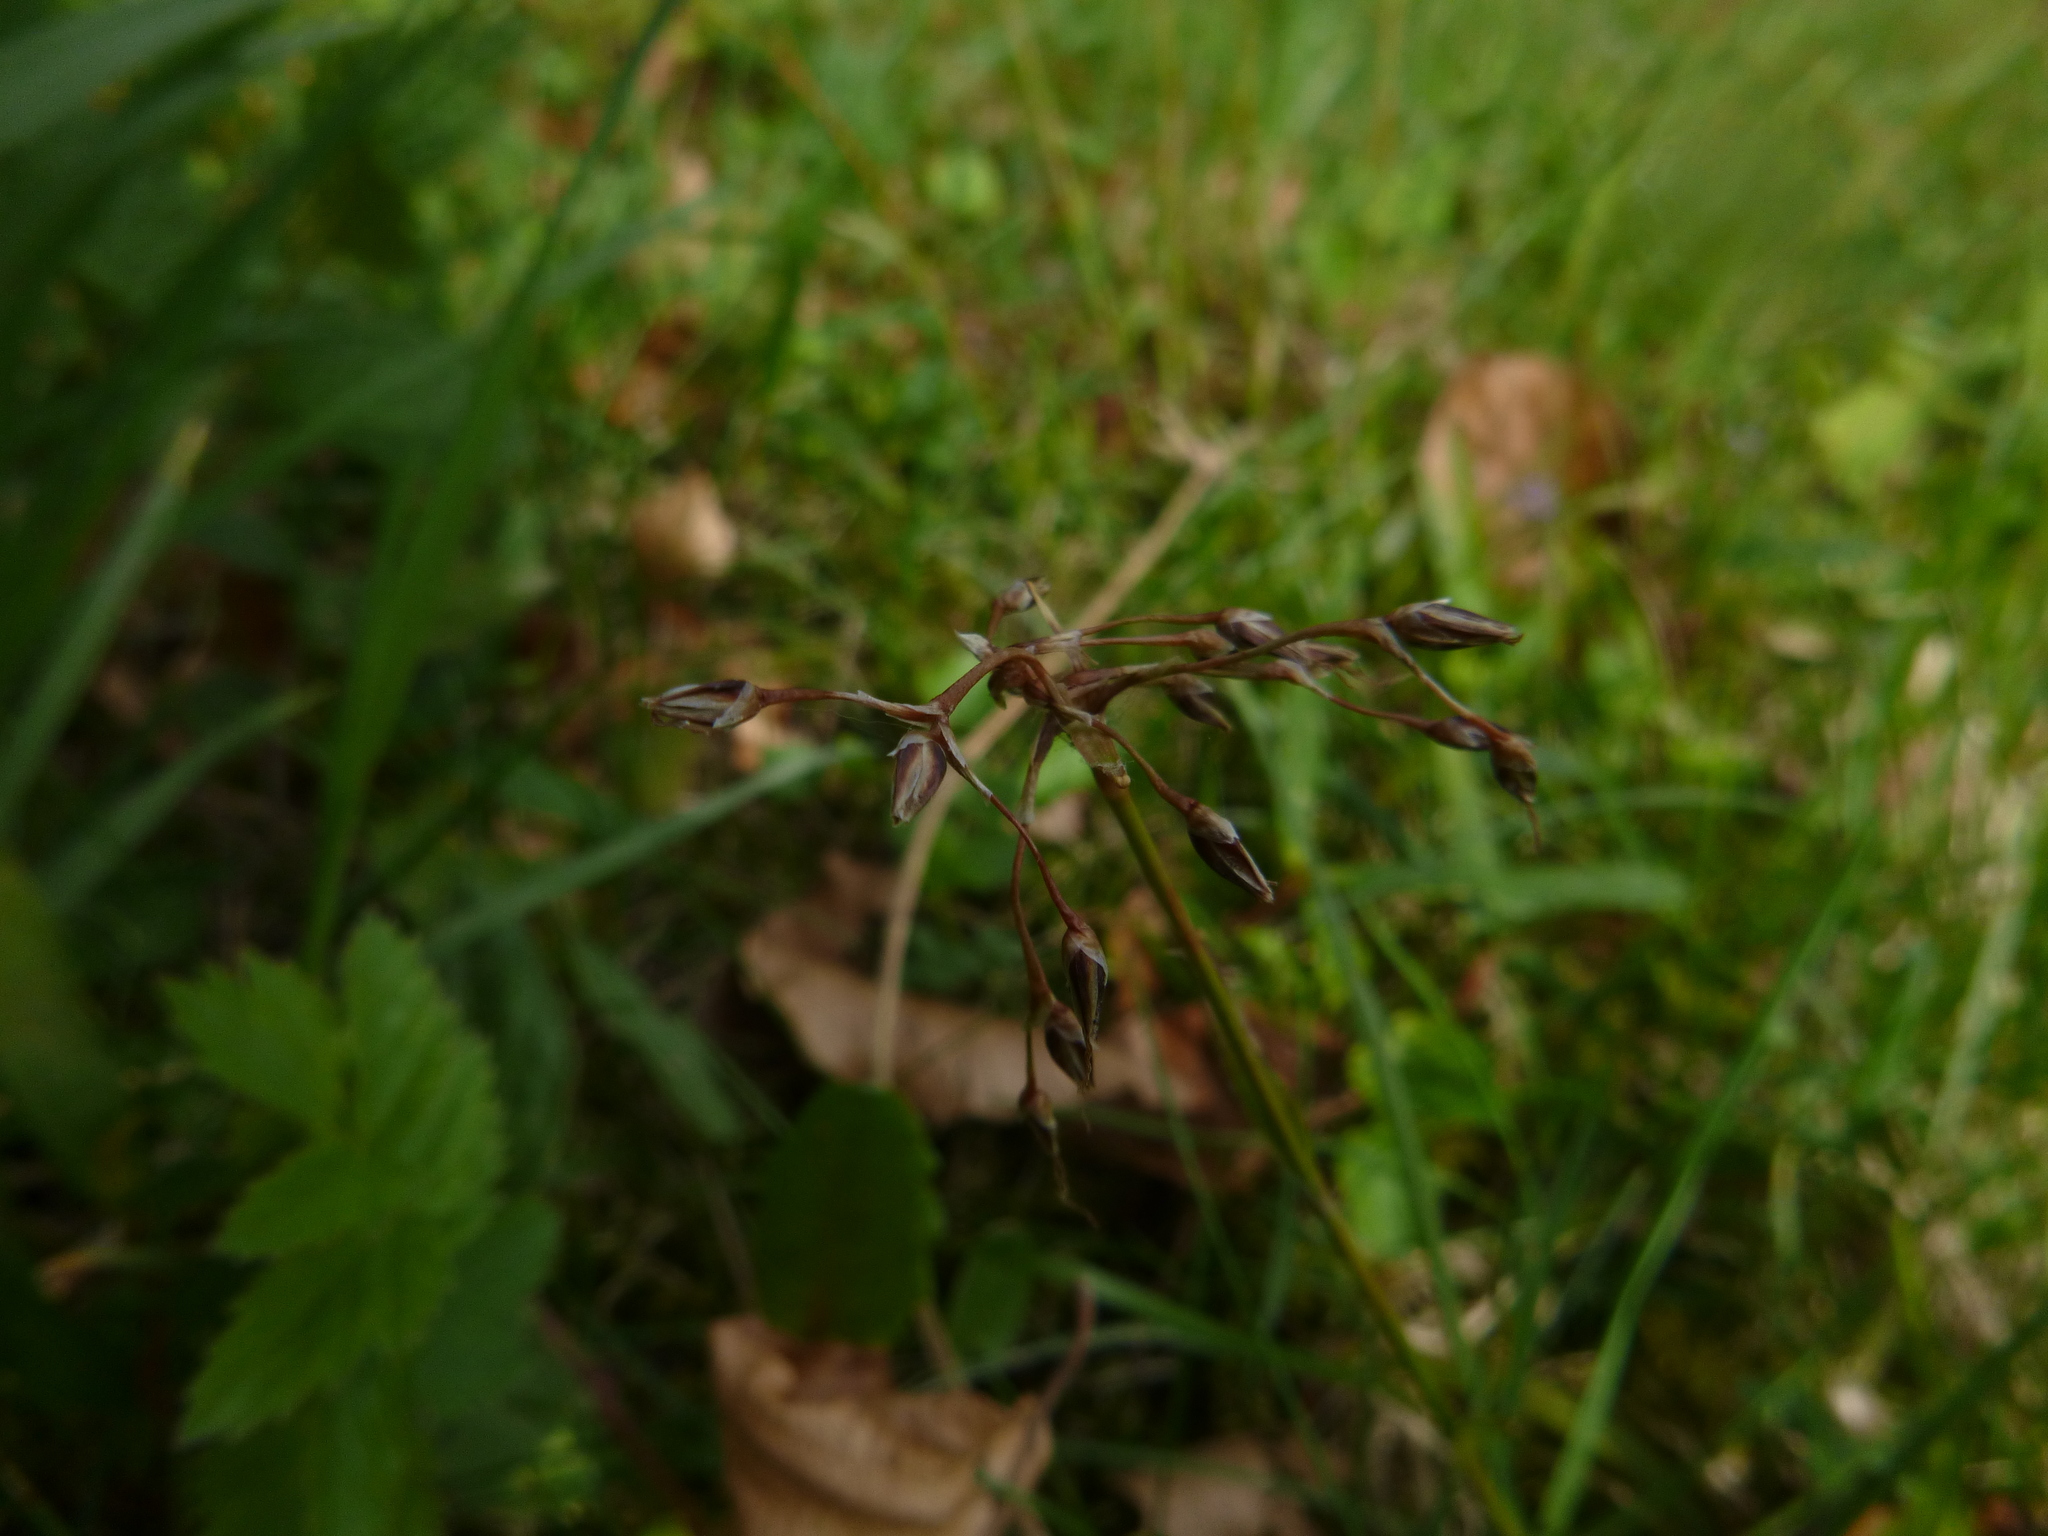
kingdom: Plantae
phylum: Tracheophyta
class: Liliopsida
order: Poales
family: Juncaceae
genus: Luzula
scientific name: Luzula pilosa
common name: Hairy wood-rush
